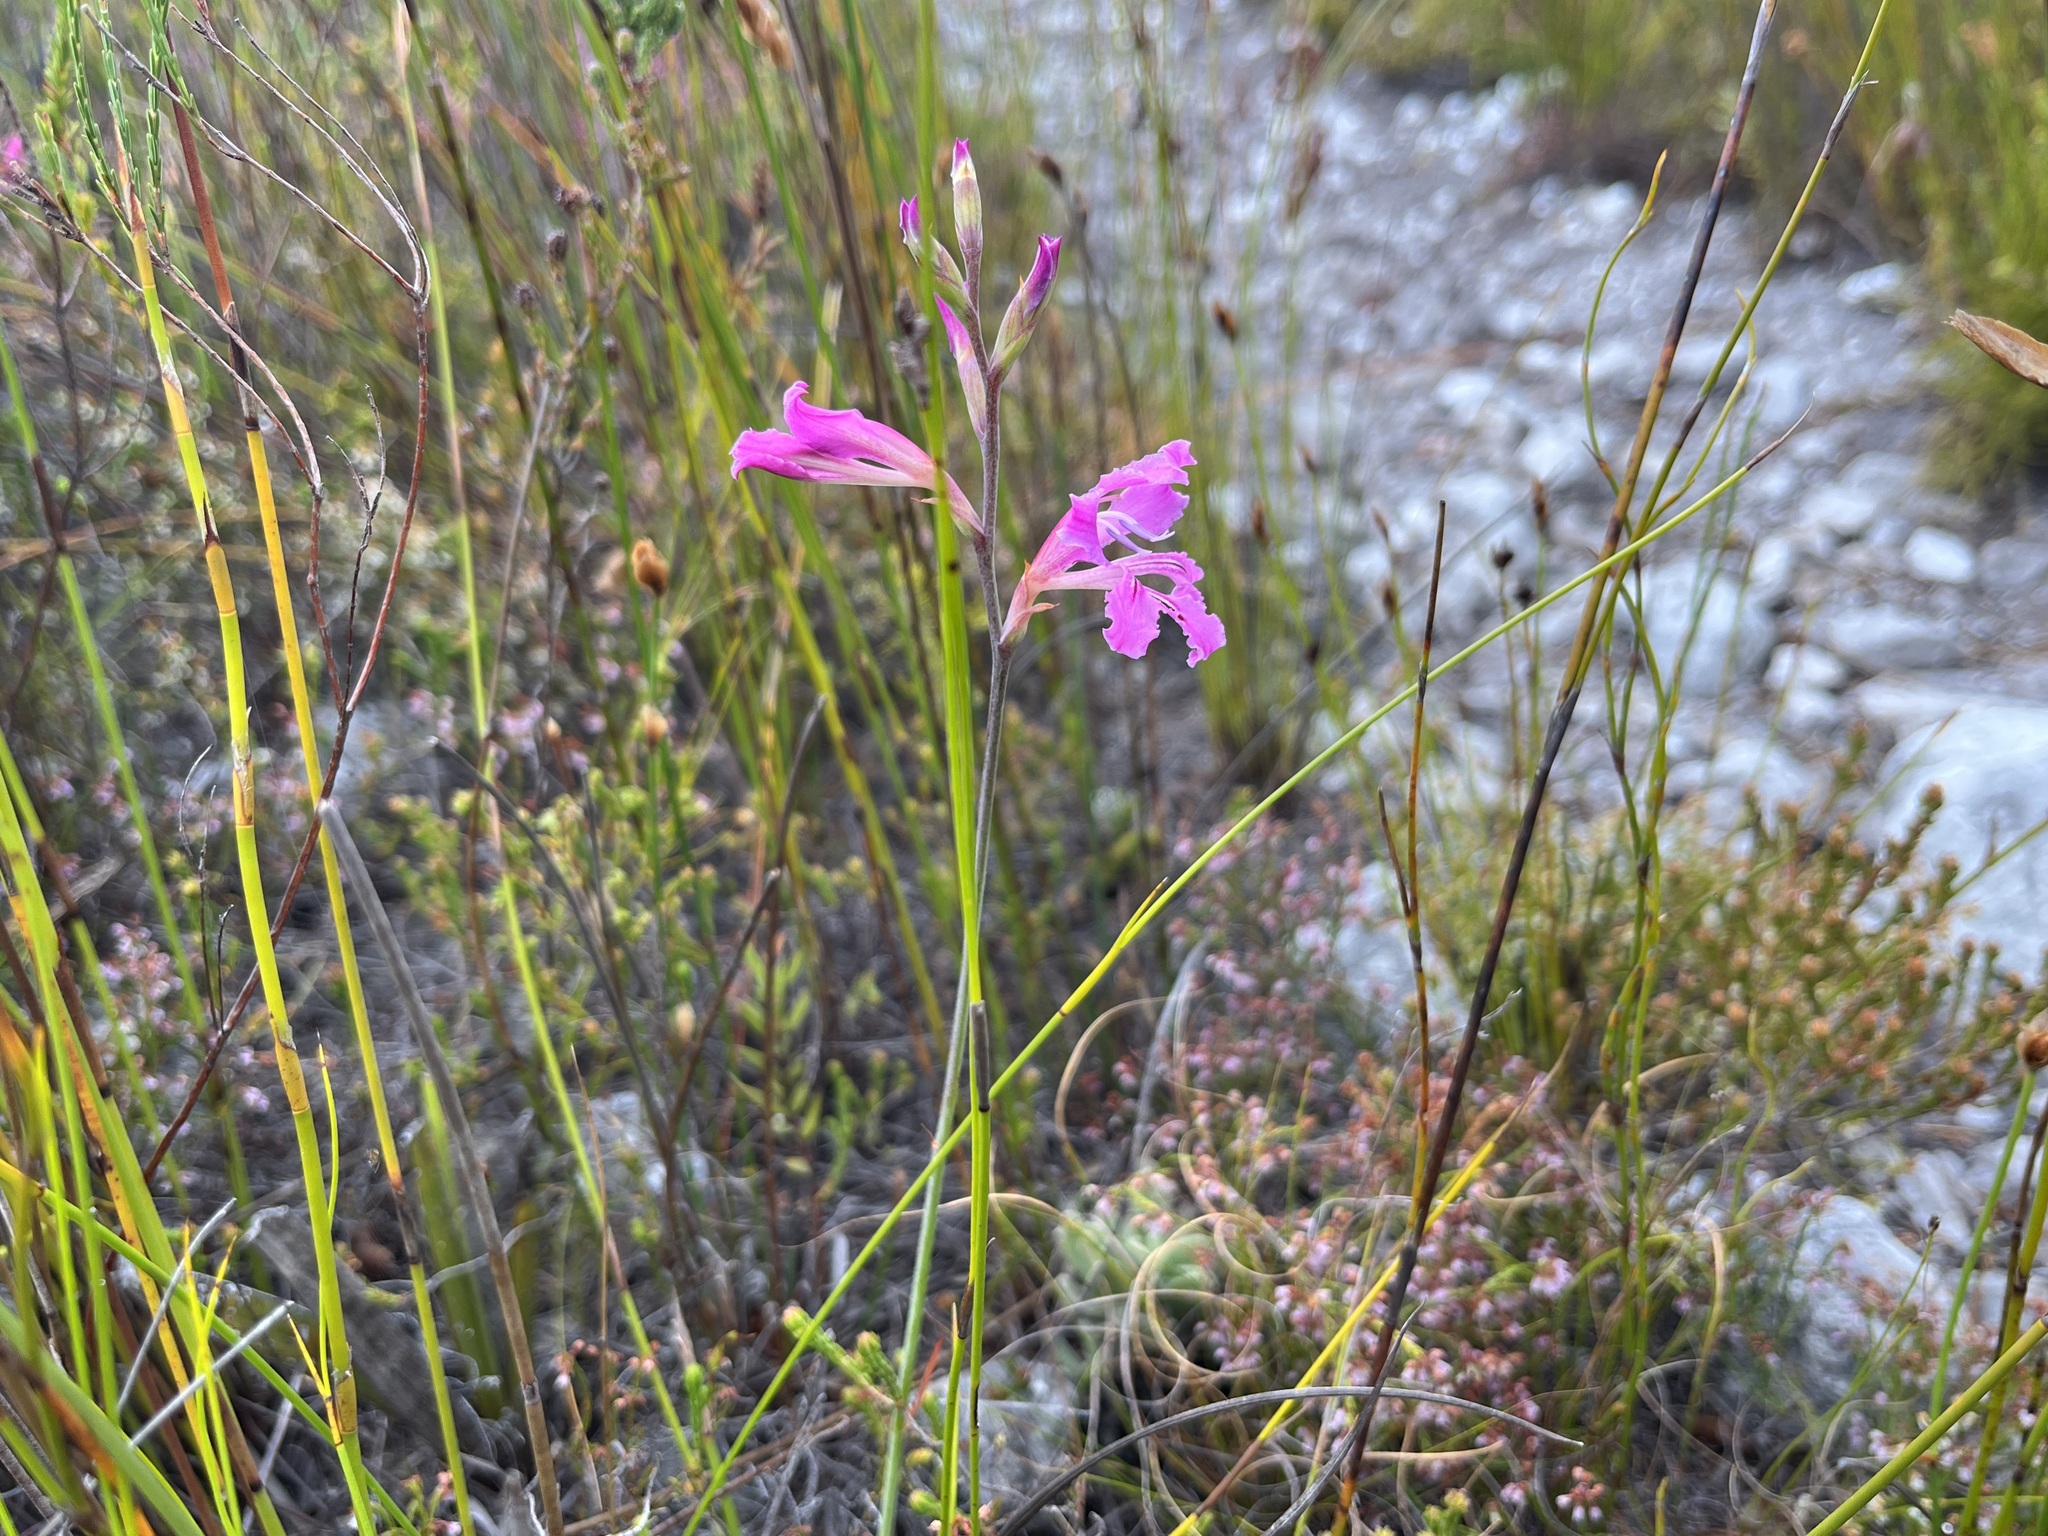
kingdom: Plantae
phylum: Tracheophyta
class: Liliopsida
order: Asparagales
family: Iridaceae
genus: Tritoniopsis
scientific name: Tritoniopsis lata
